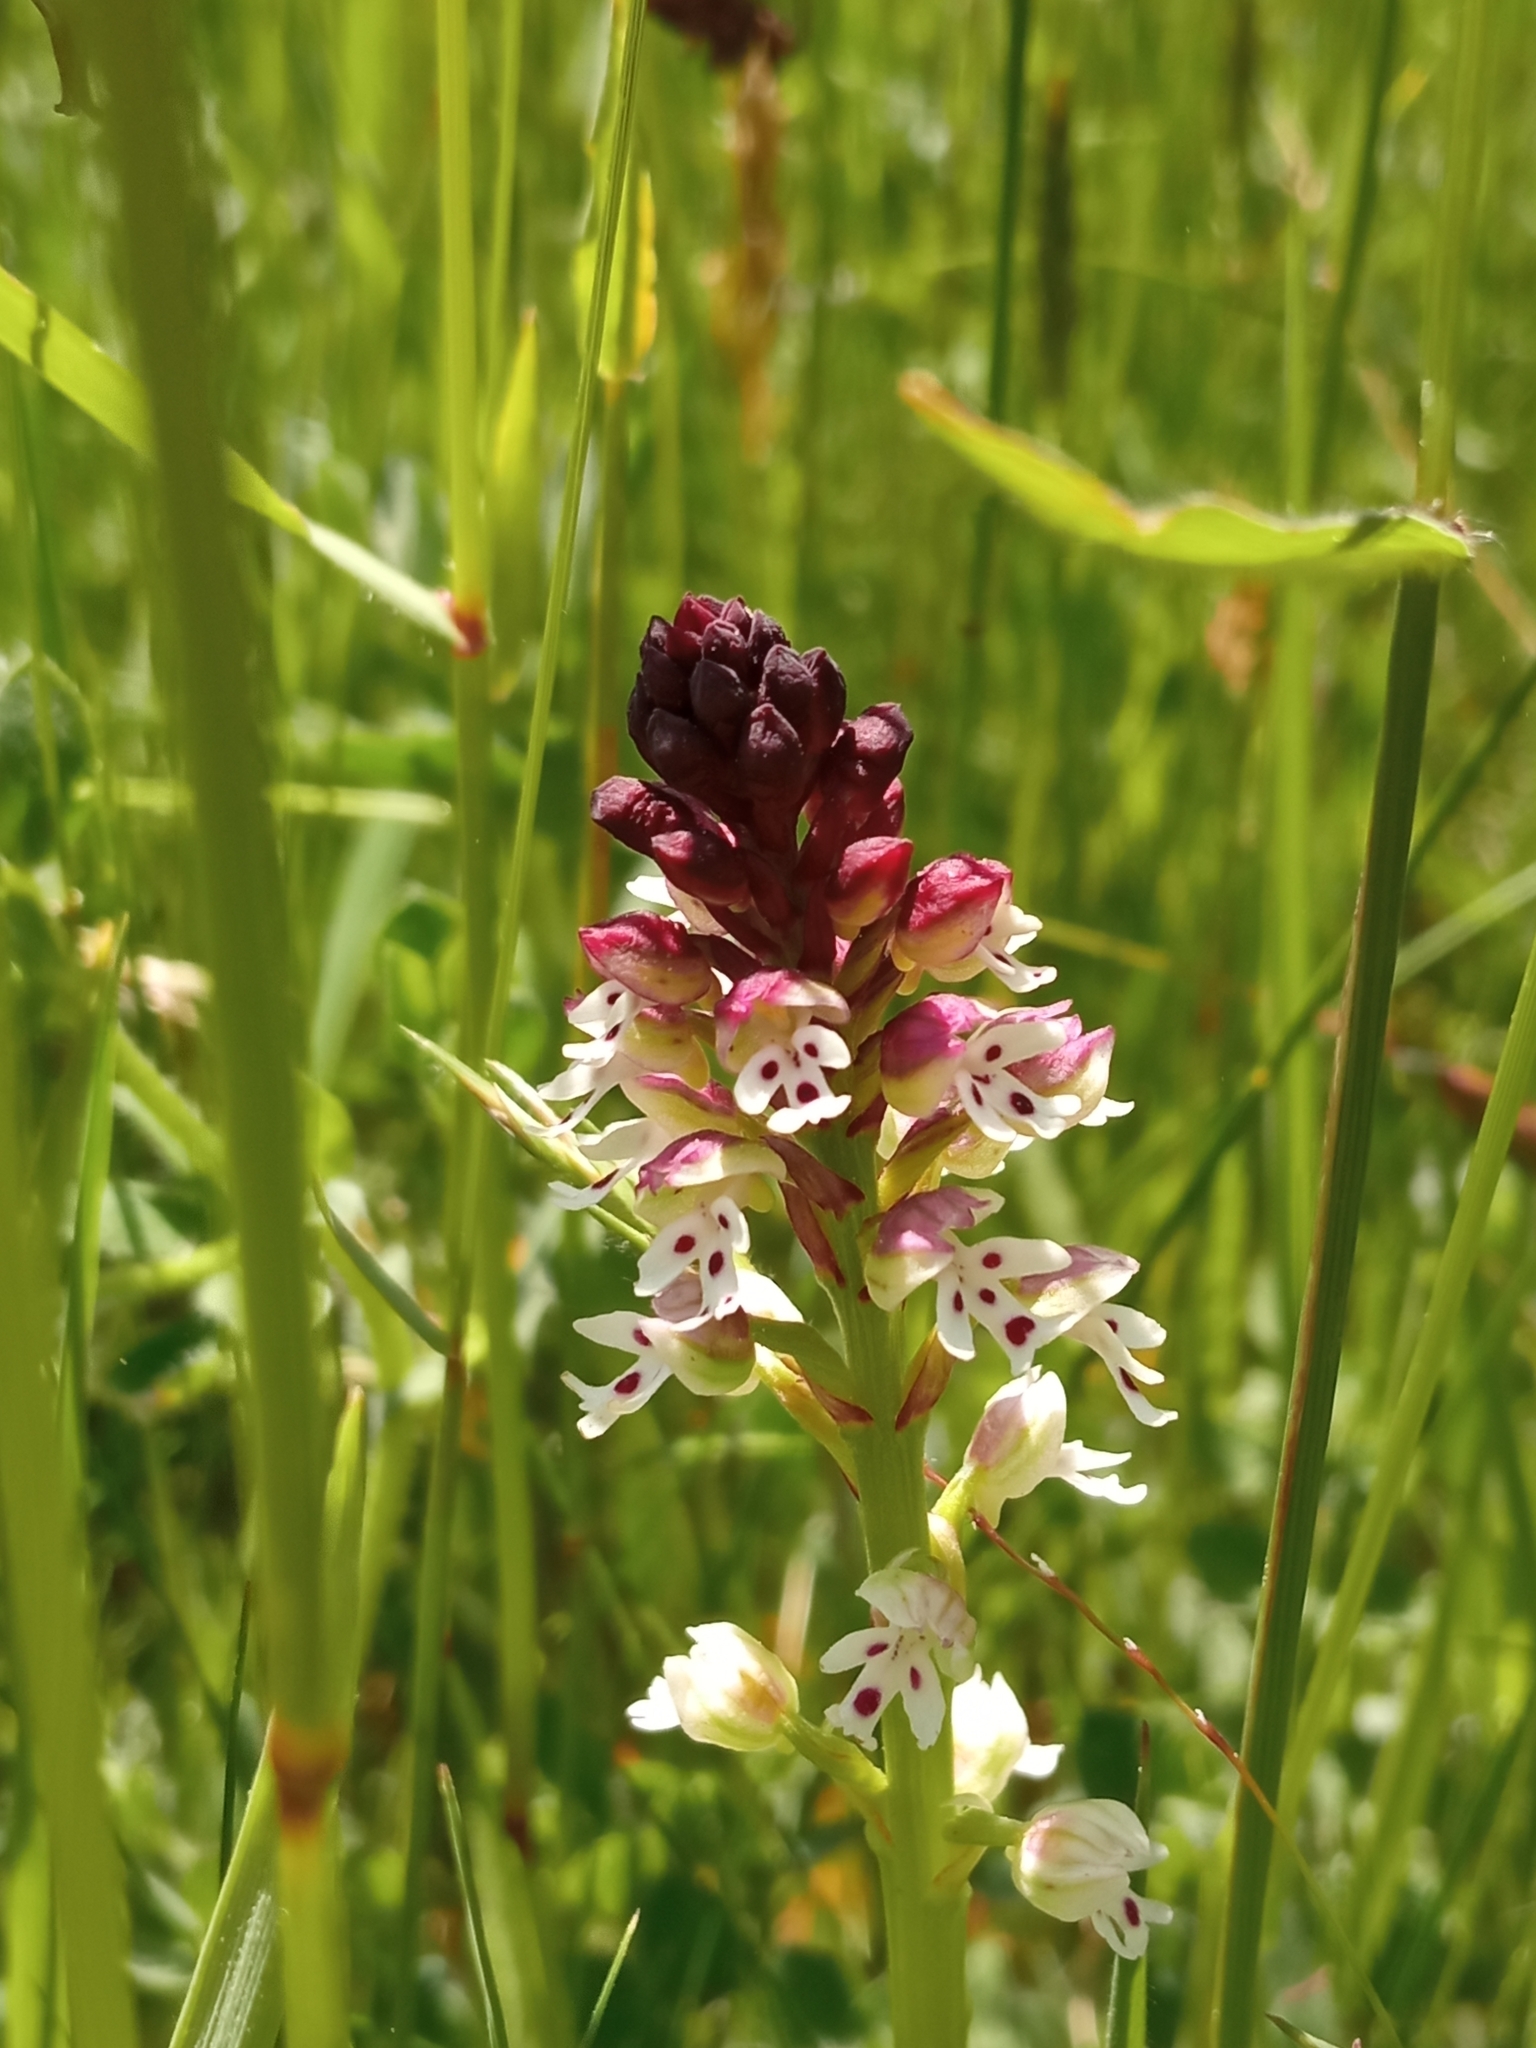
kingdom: Plantae
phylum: Tracheophyta
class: Liliopsida
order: Asparagales
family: Orchidaceae
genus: Neotinea
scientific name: Neotinea ustulata
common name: Burnt orchid
